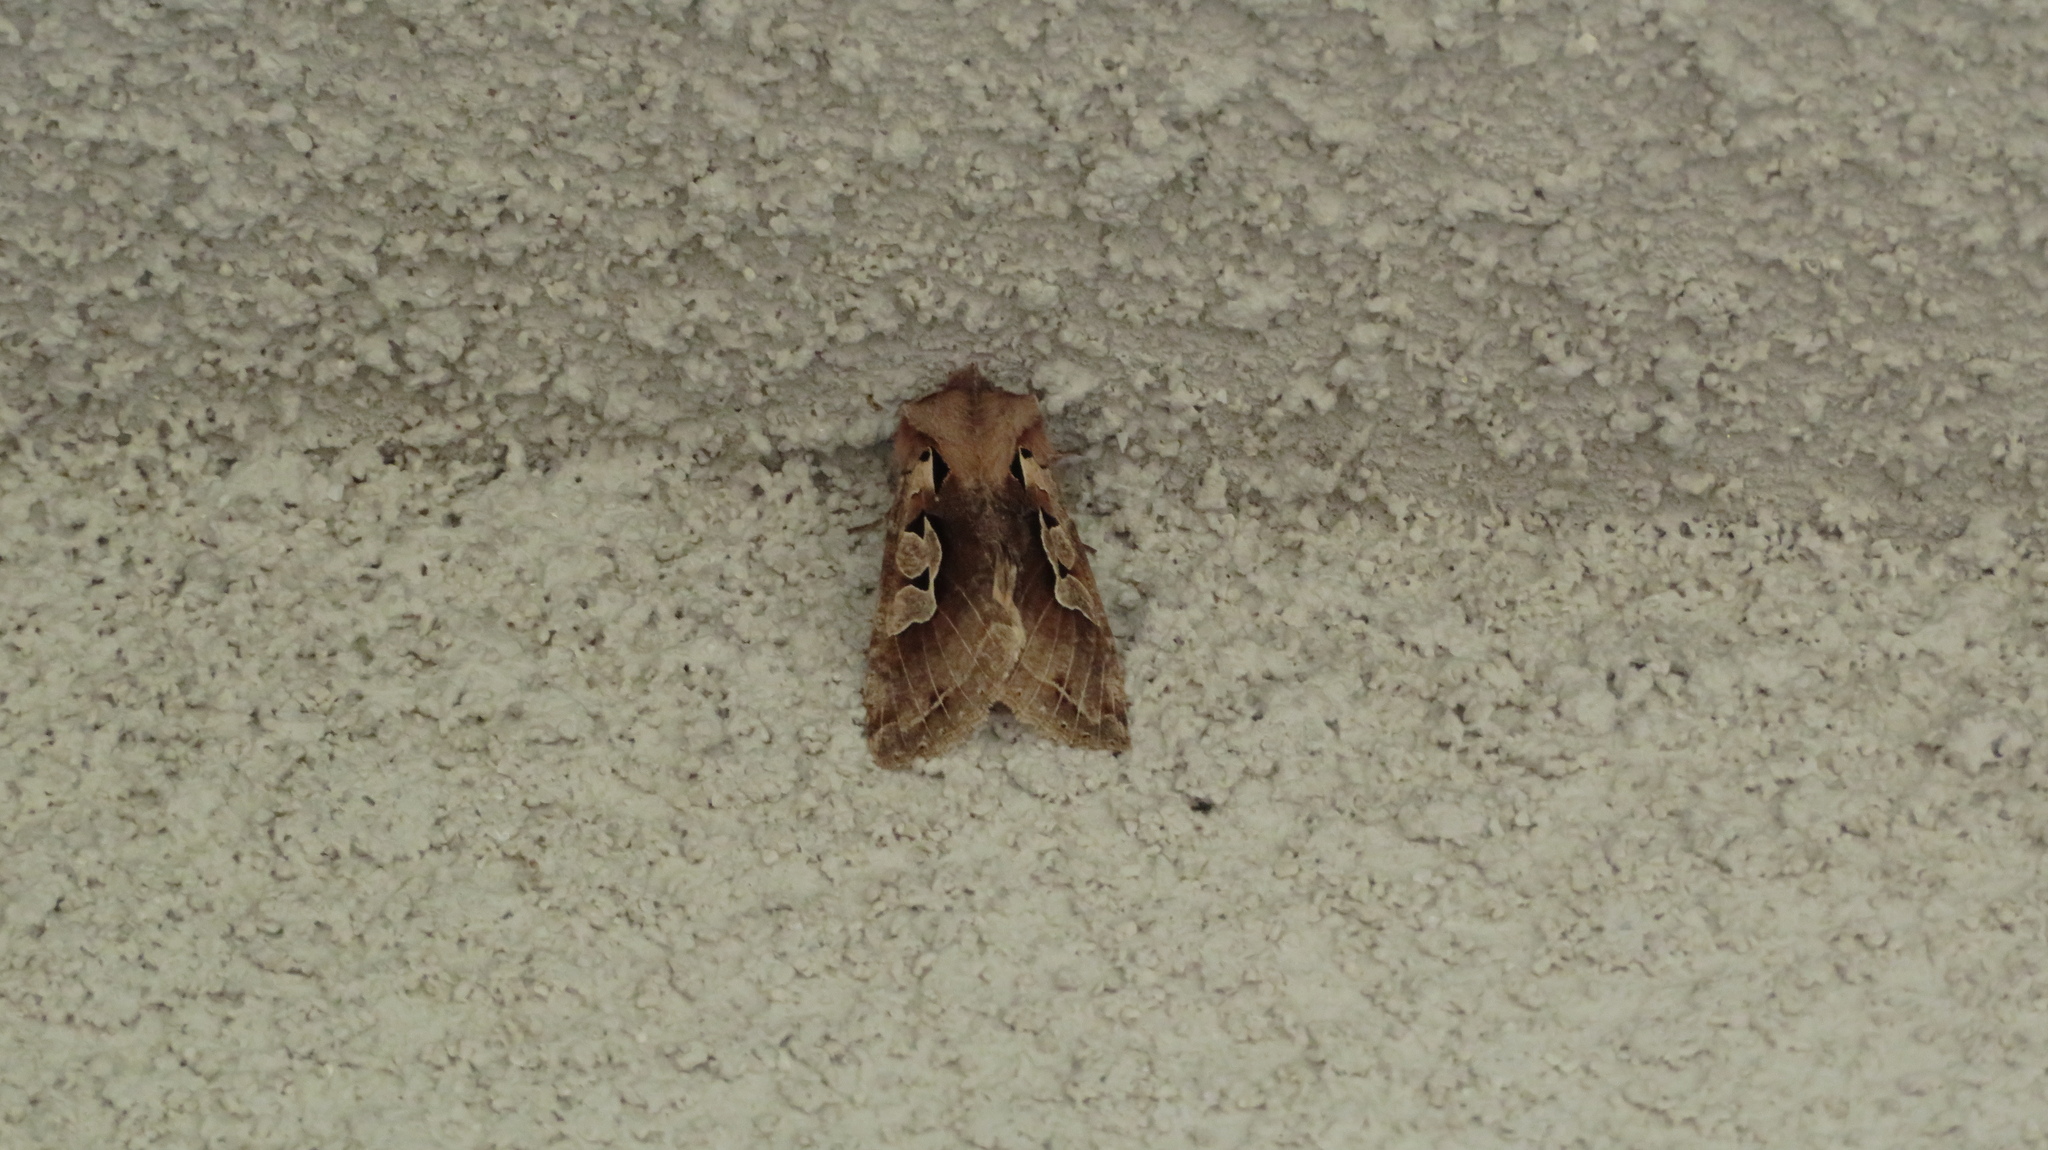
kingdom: Animalia
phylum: Arthropoda
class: Insecta
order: Lepidoptera
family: Noctuidae
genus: Perigrapha
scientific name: Perigrapha hoenei
